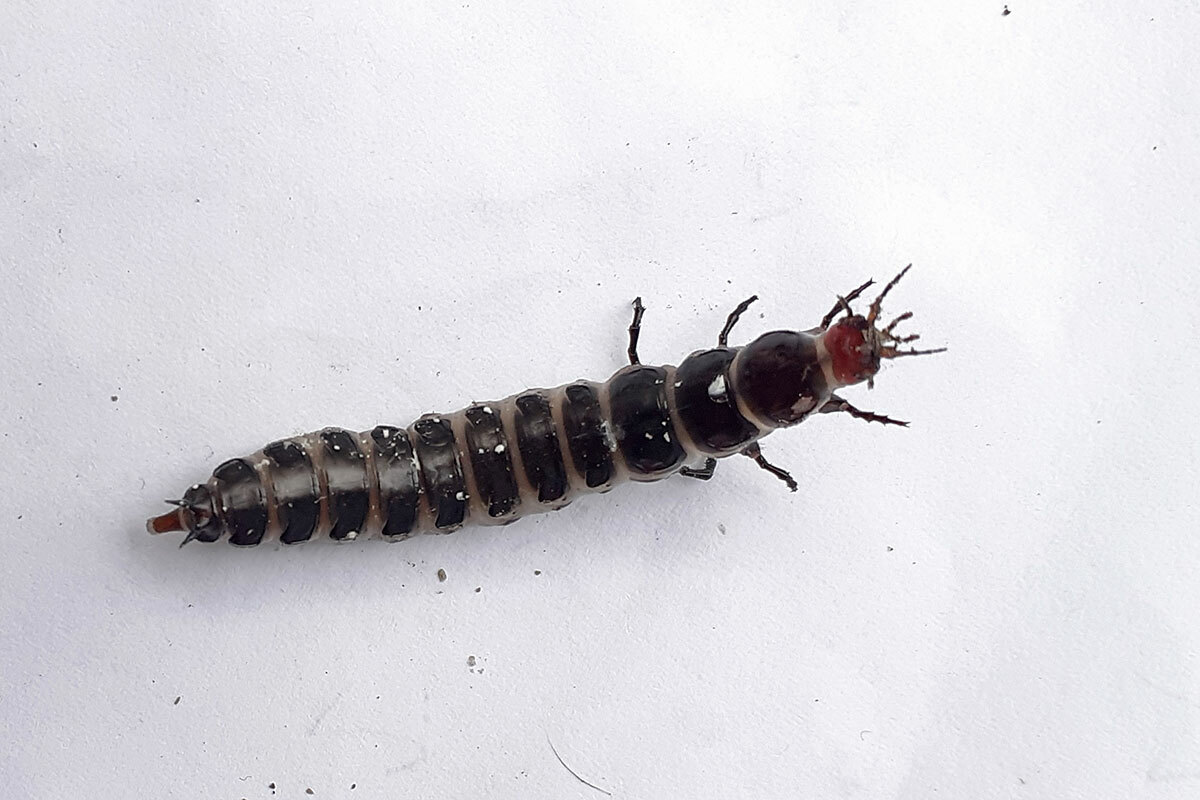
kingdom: Animalia
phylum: Arthropoda
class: Insecta
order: Coleoptera
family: Carabidae
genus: Carabus
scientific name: Carabus
